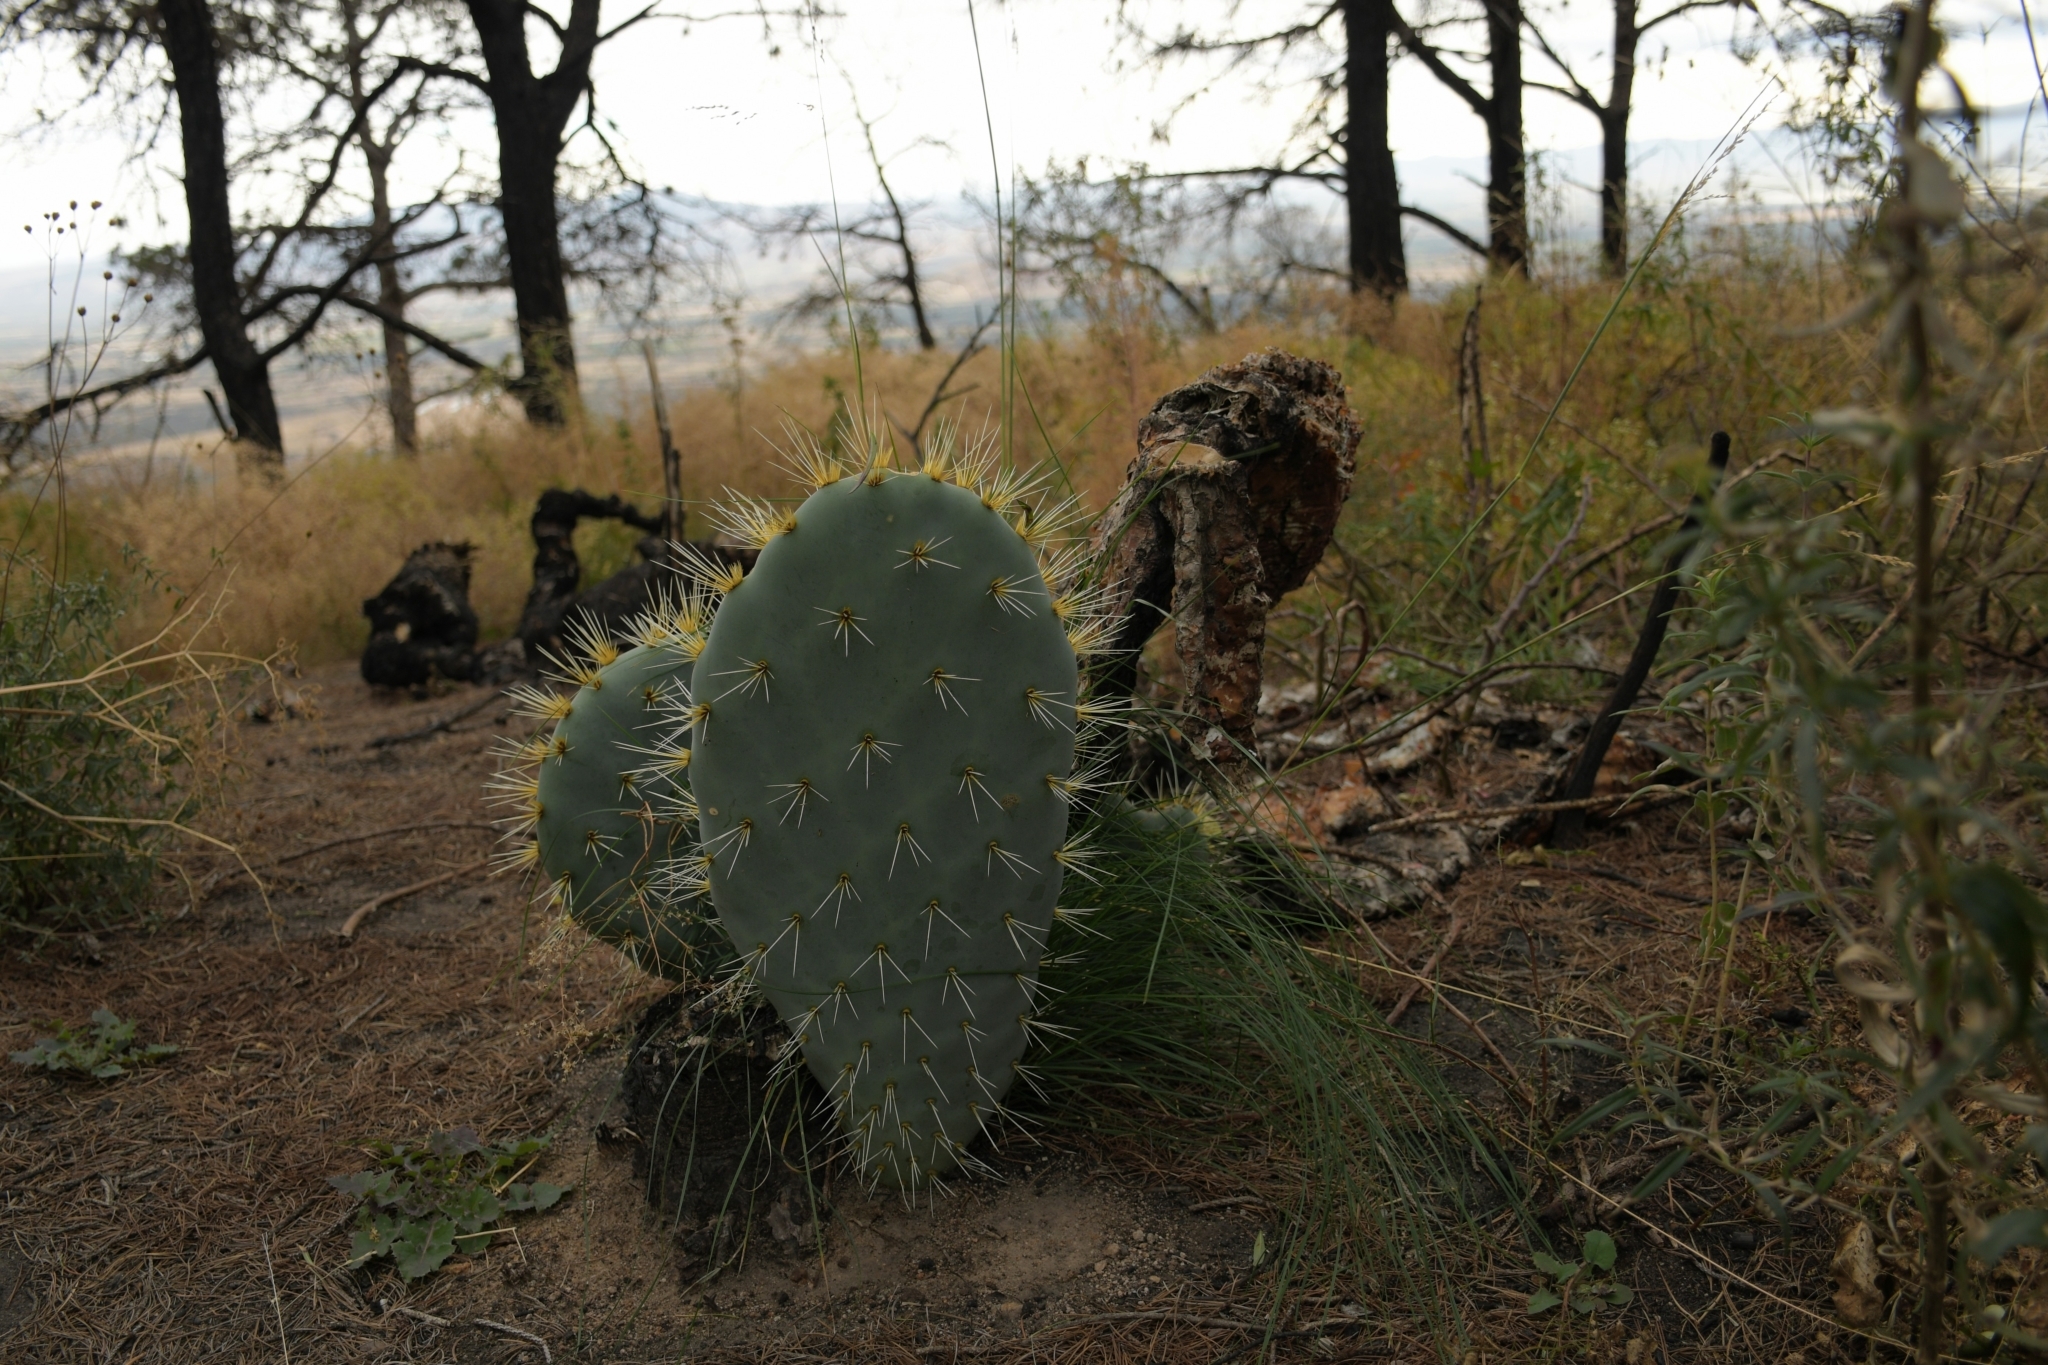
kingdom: Plantae
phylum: Tracheophyta
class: Magnoliopsida
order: Caryophyllales
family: Cactaceae
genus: Opuntia
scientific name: Opuntia robusta
